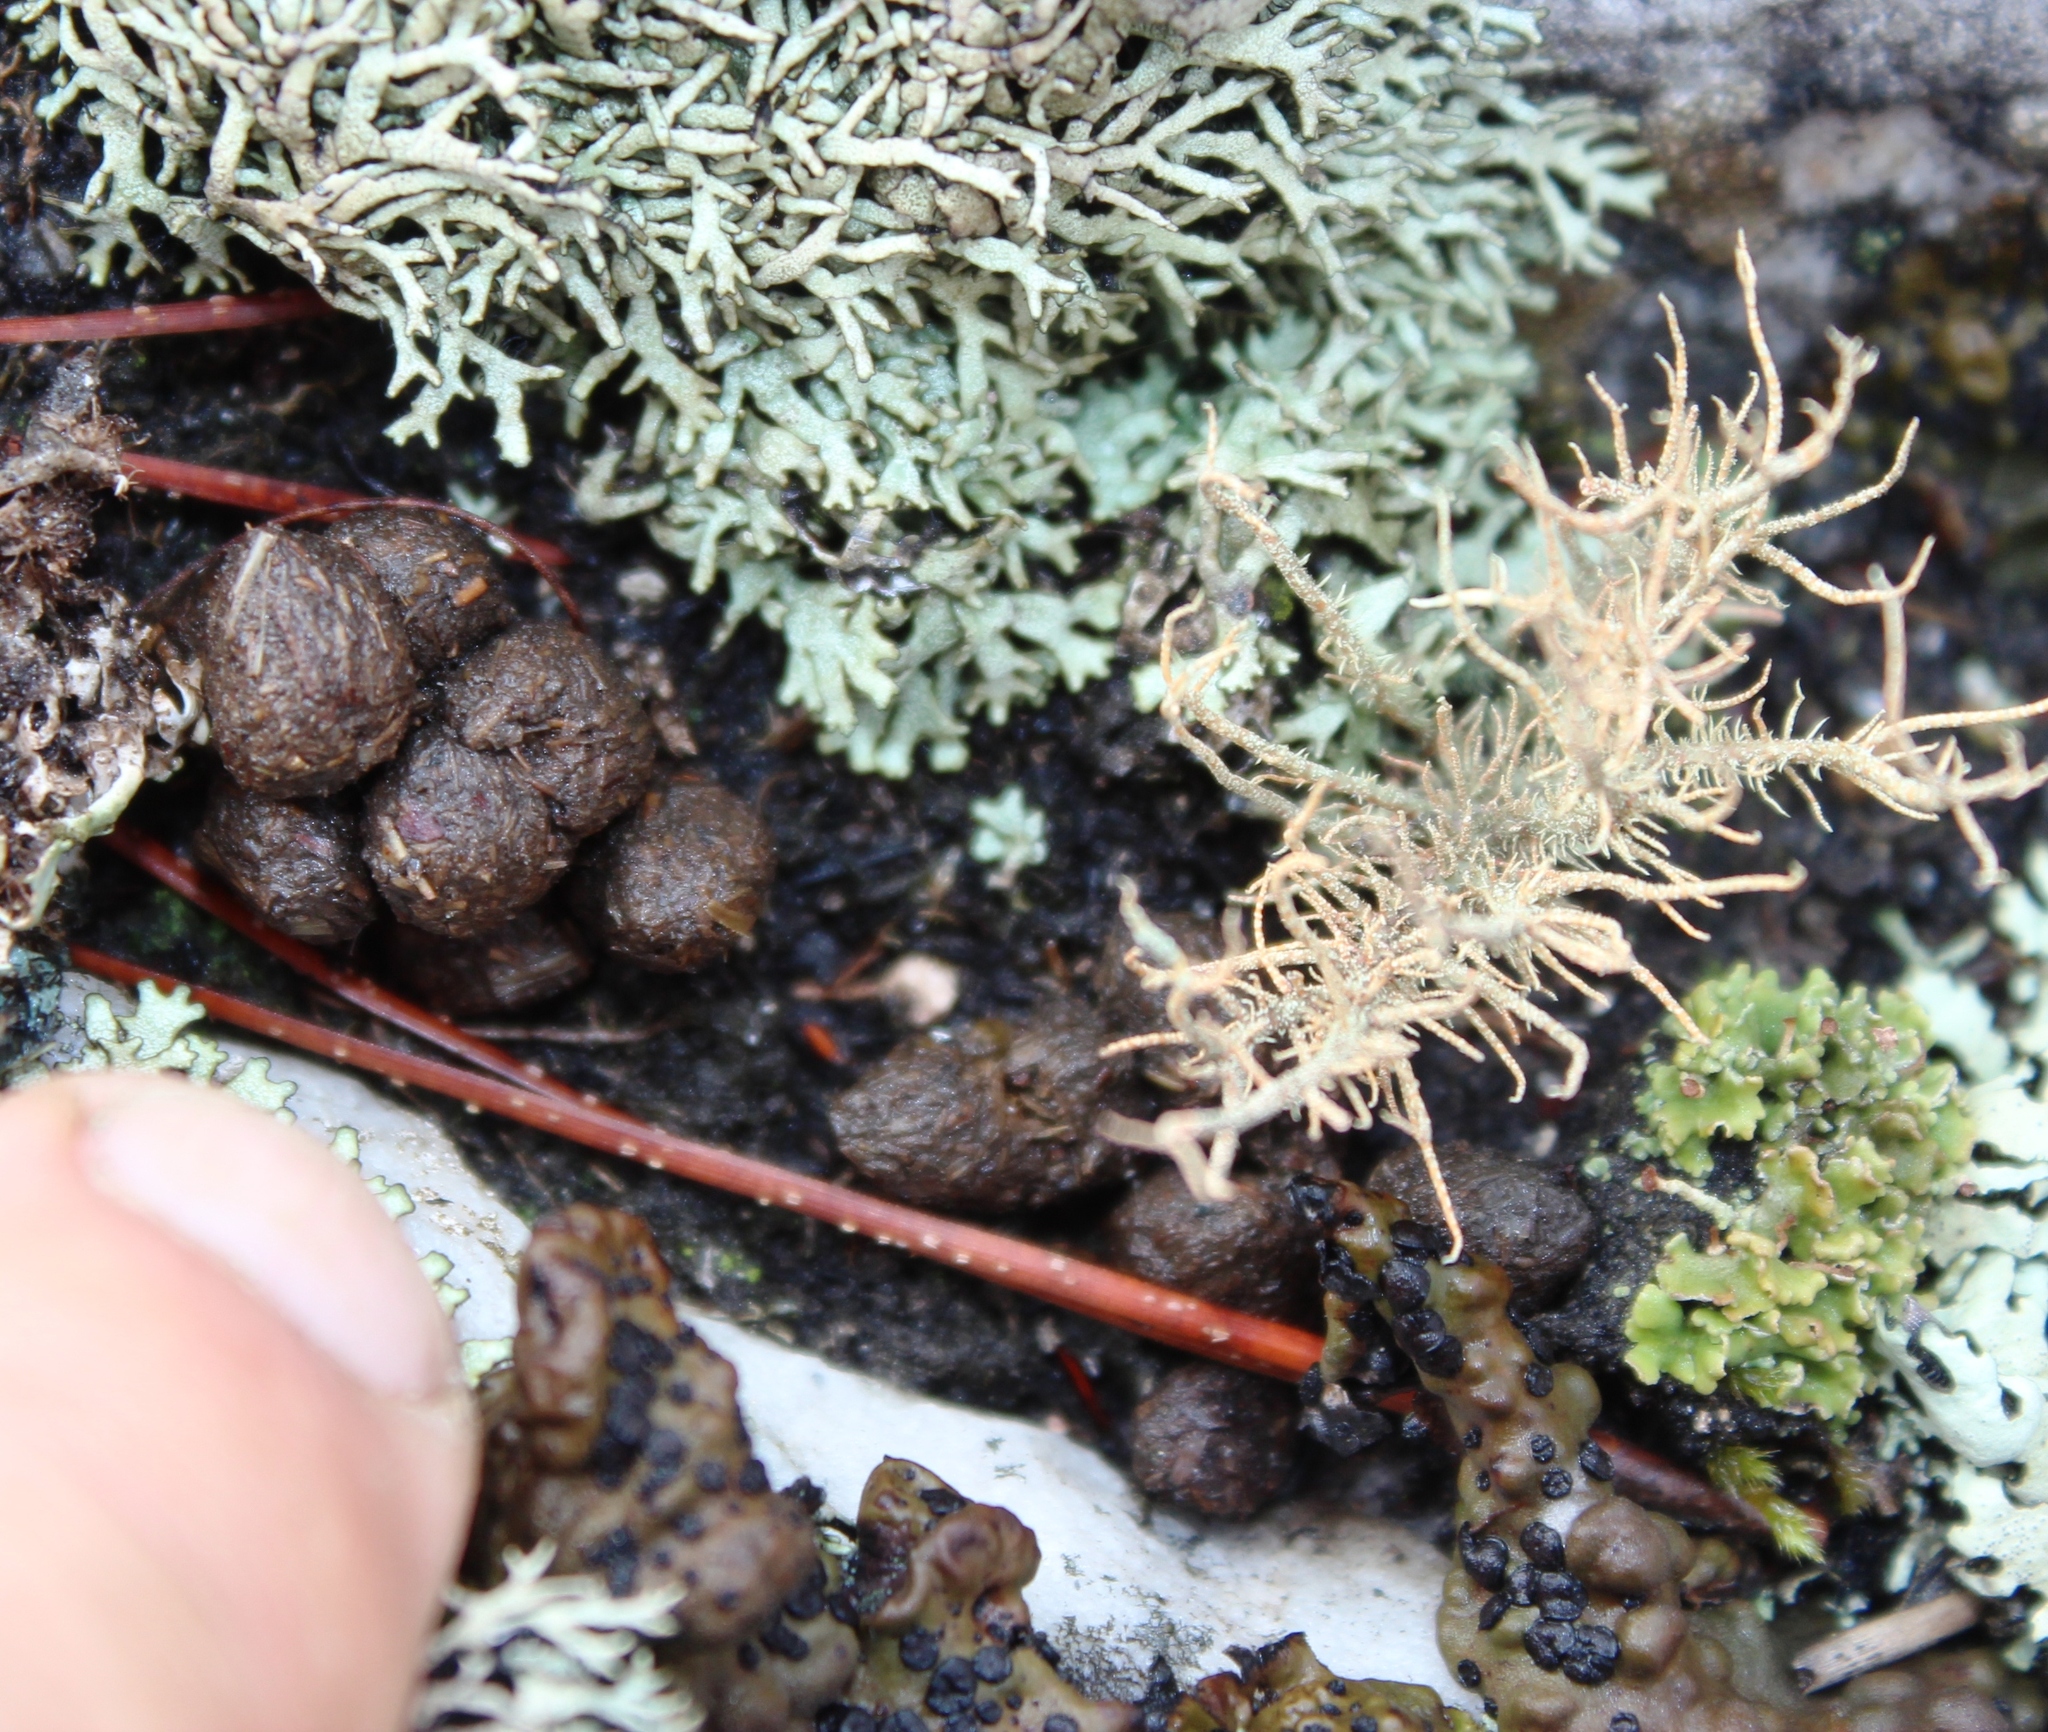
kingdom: Animalia
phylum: Chordata
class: Mammalia
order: Hyracoidea
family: Procaviidae
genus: Procavia
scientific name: Procavia capensis
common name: Rock hyrax
